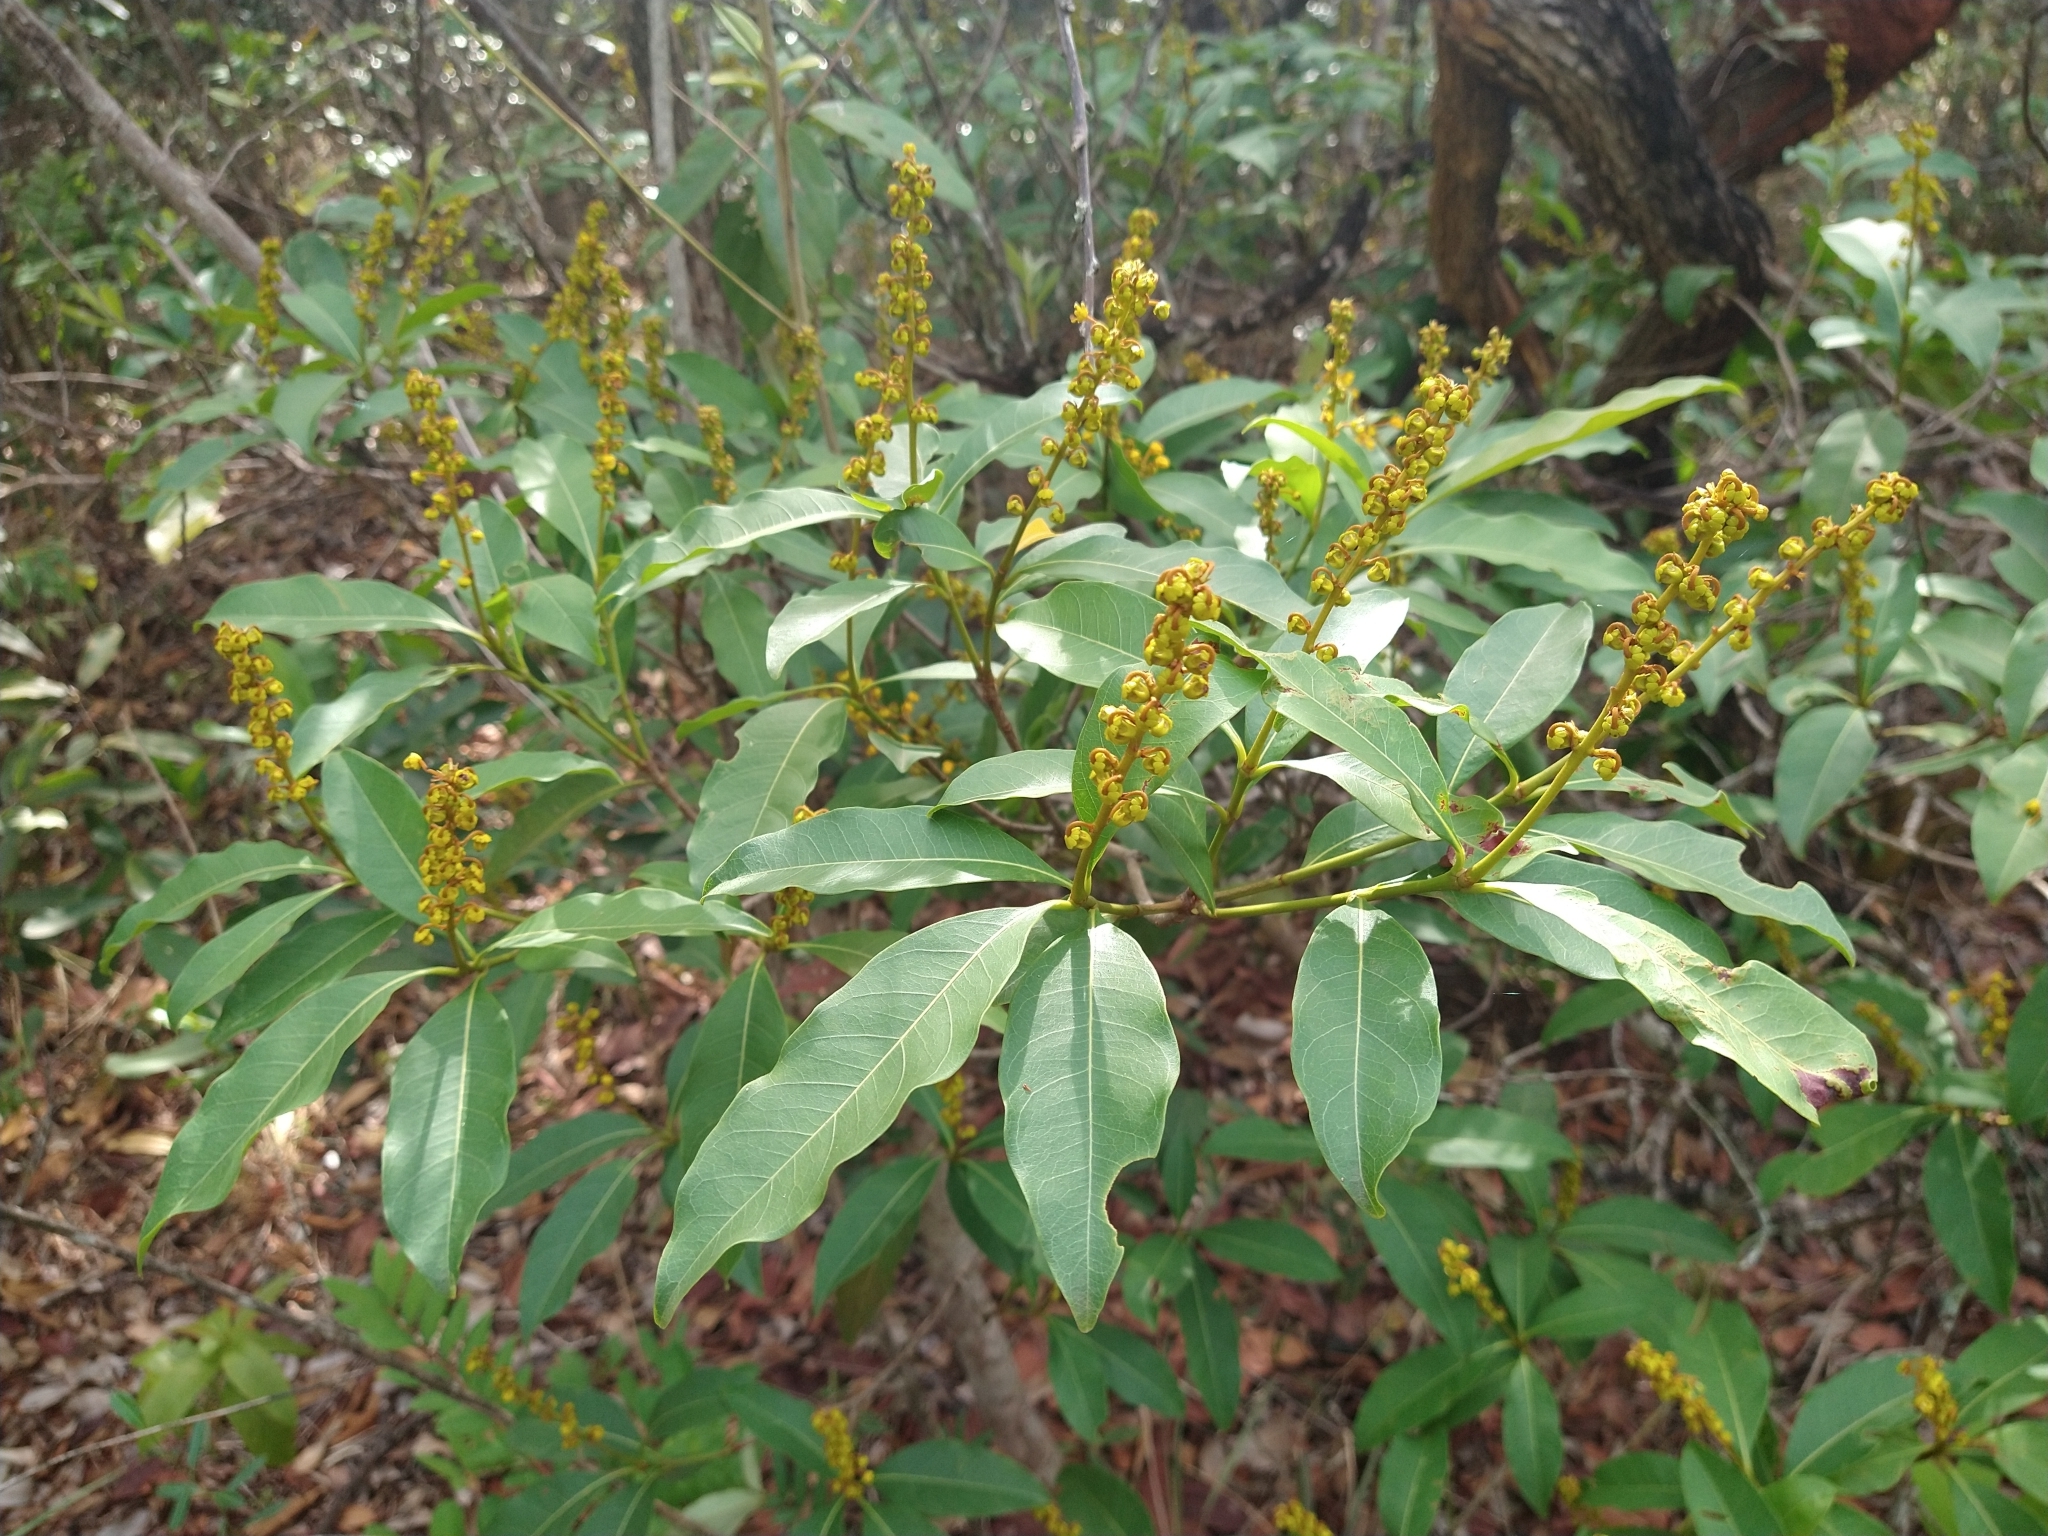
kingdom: Plantae
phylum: Tracheophyta
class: Magnoliopsida
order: Malpighiales
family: Malpighiaceae
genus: Byrsonima
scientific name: Byrsonima intermedia
